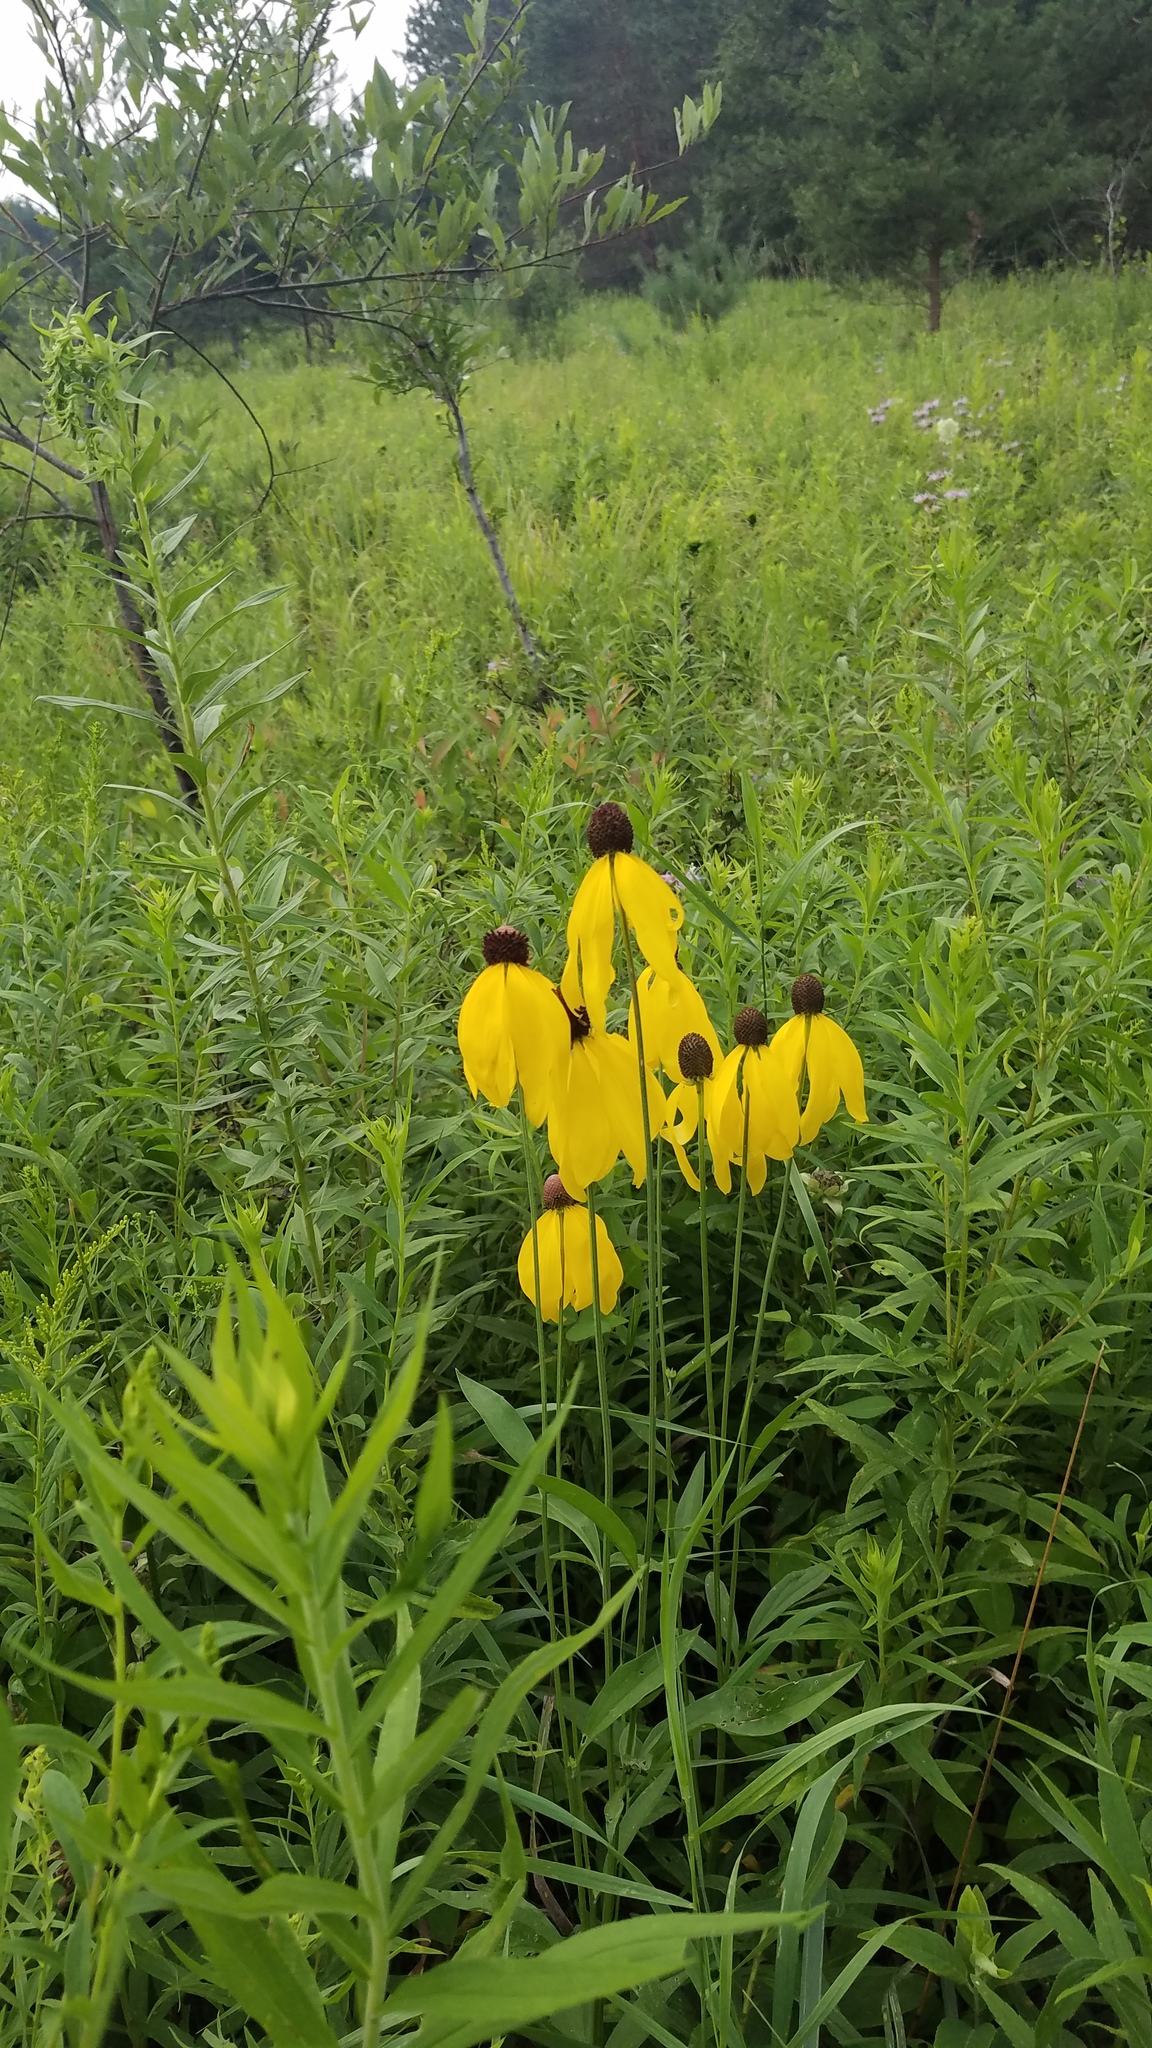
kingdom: Plantae
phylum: Tracheophyta
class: Magnoliopsida
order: Asterales
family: Asteraceae
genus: Ratibida
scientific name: Ratibida pinnata
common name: Drooping prairie-coneflower
